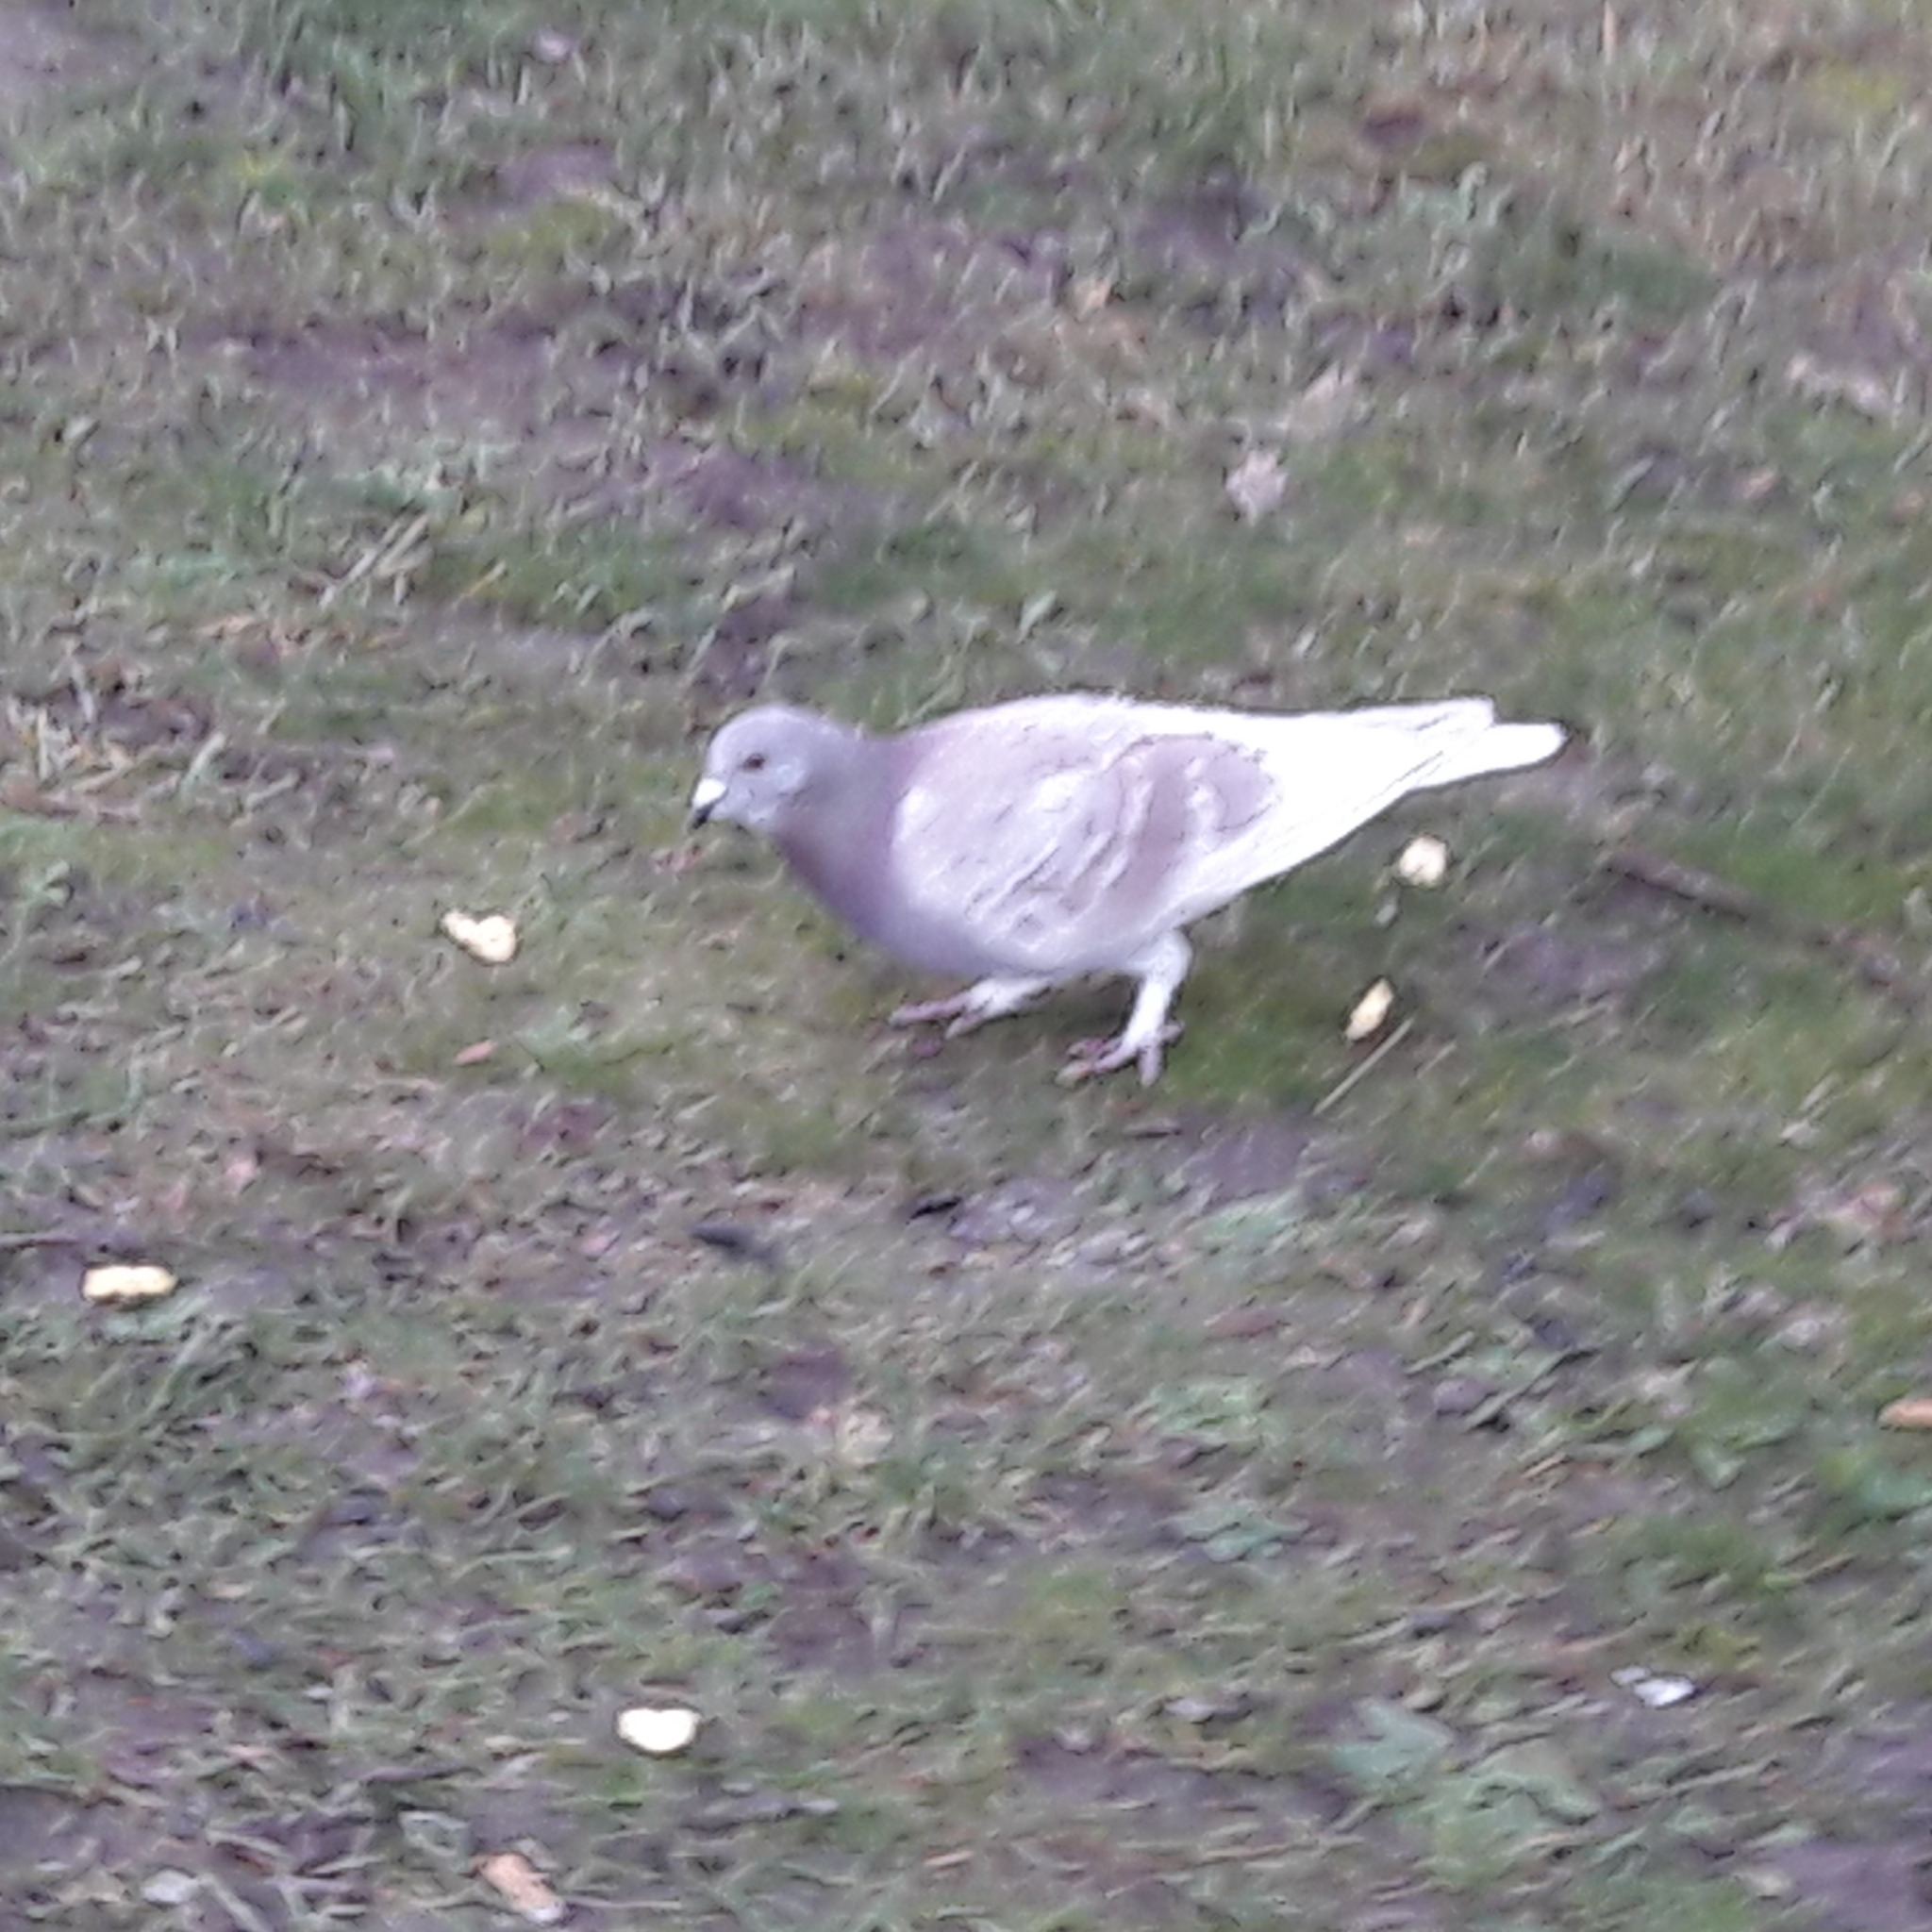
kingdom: Animalia
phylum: Chordata
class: Aves
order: Columbiformes
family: Columbidae
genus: Columba
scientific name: Columba livia
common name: Rock pigeon
